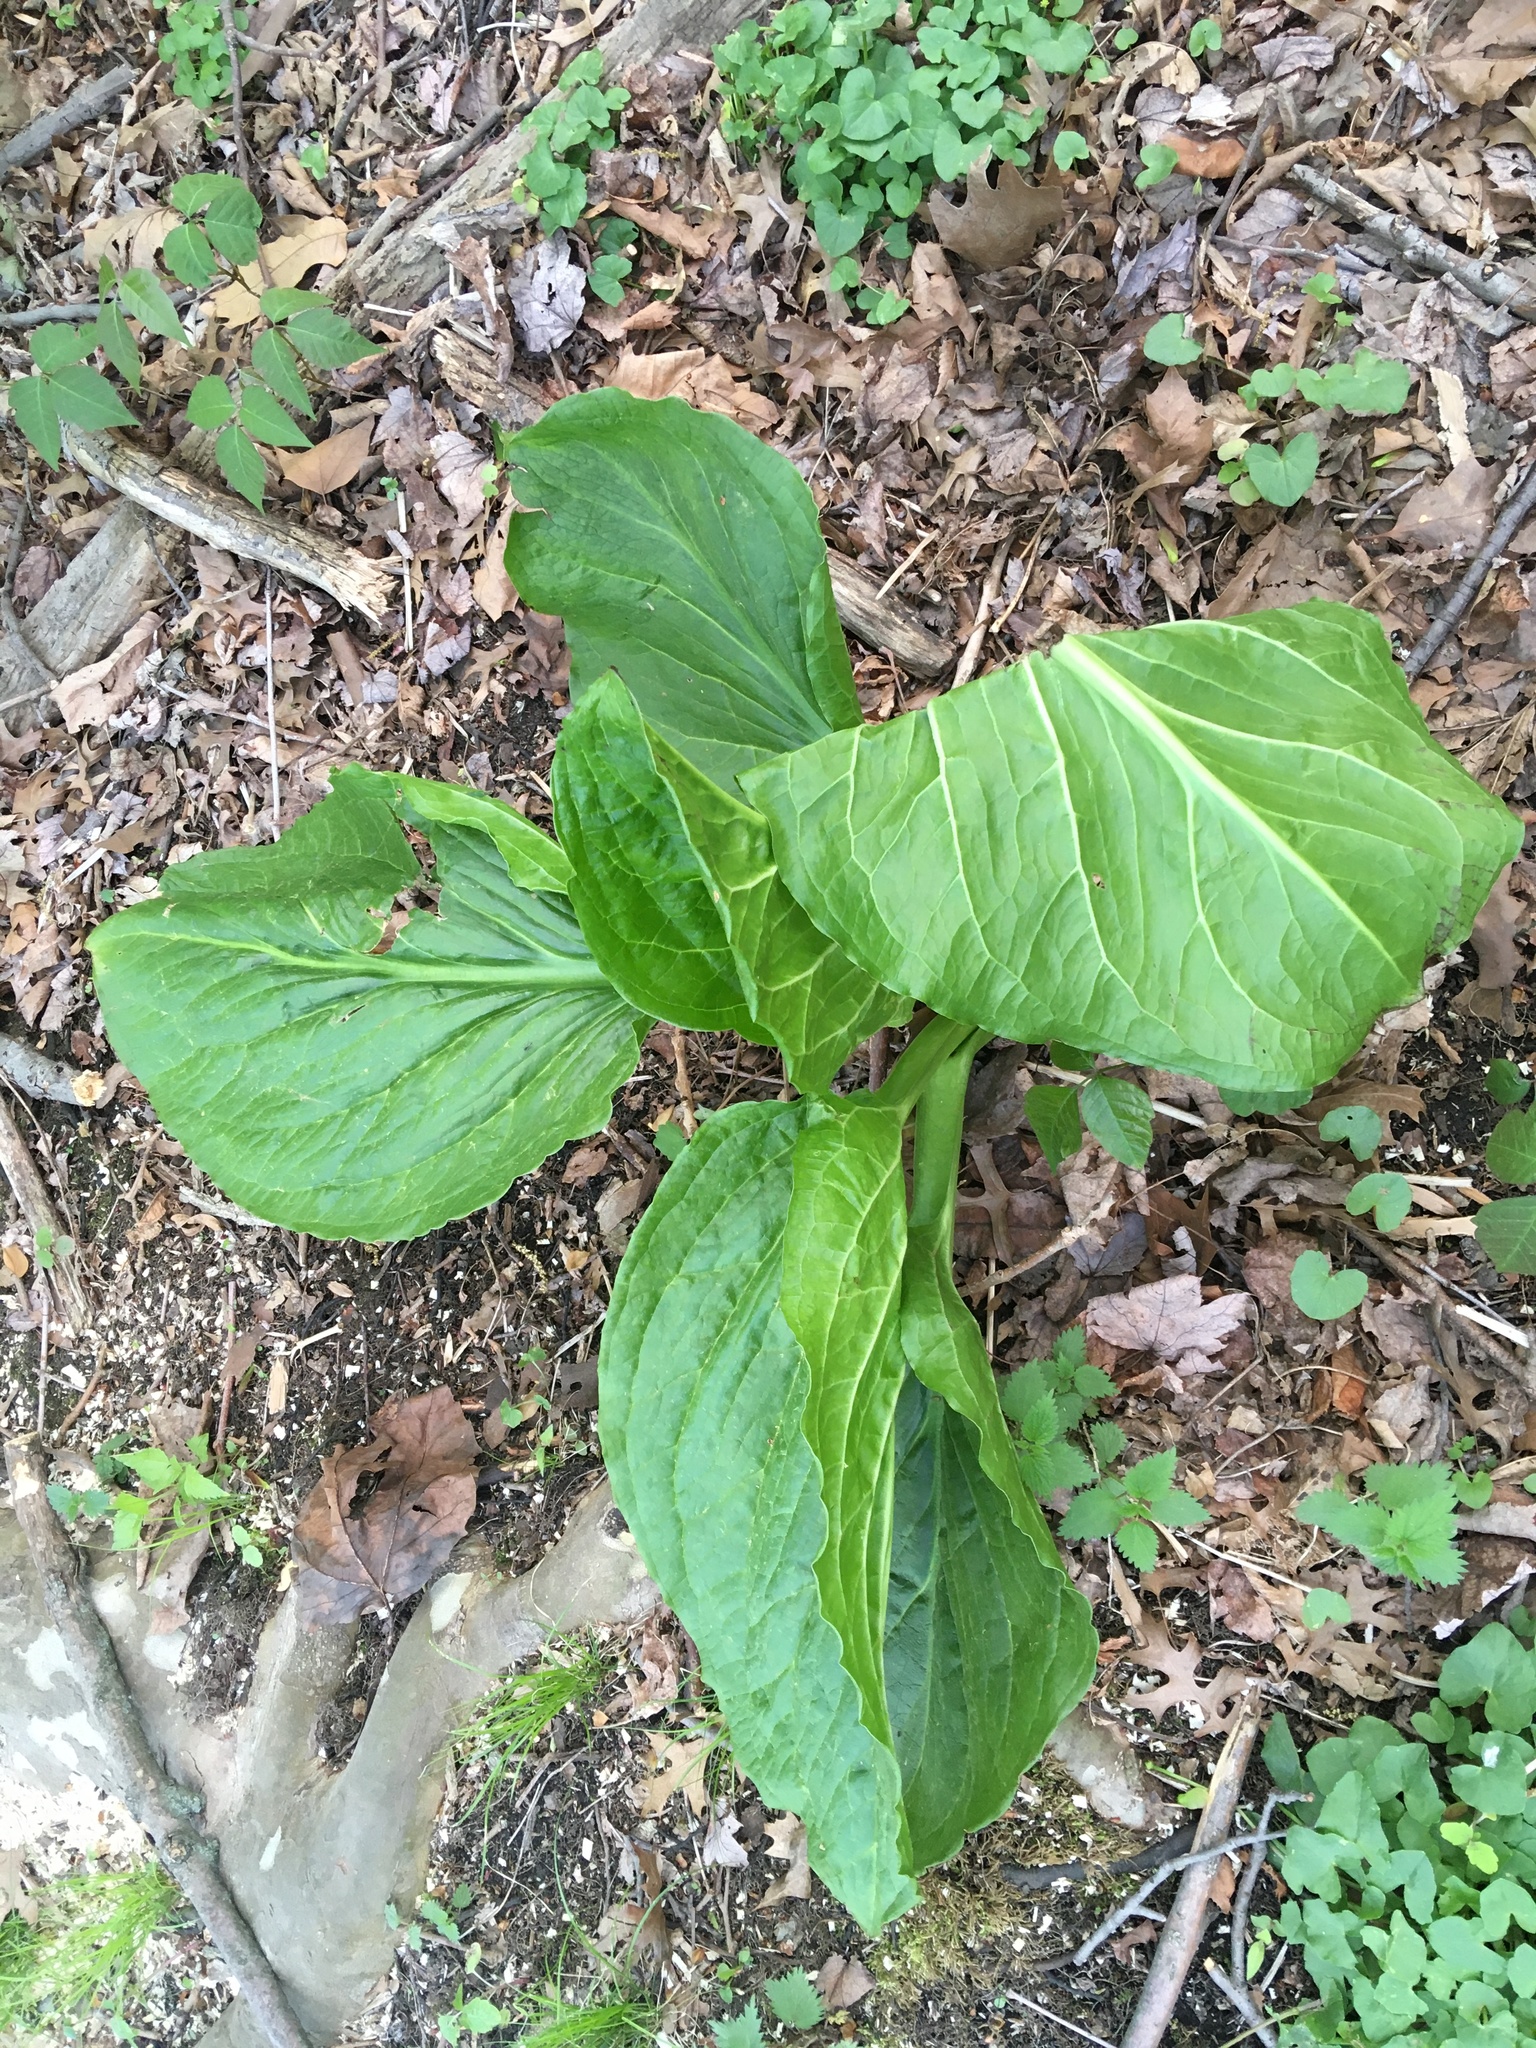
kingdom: Plantae
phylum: Tracheophyta
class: Liliopsida
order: Alismatales
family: Araceae
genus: Symplocarpus
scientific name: Symplocarpus foetidus
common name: Eastern skunk cabbage
